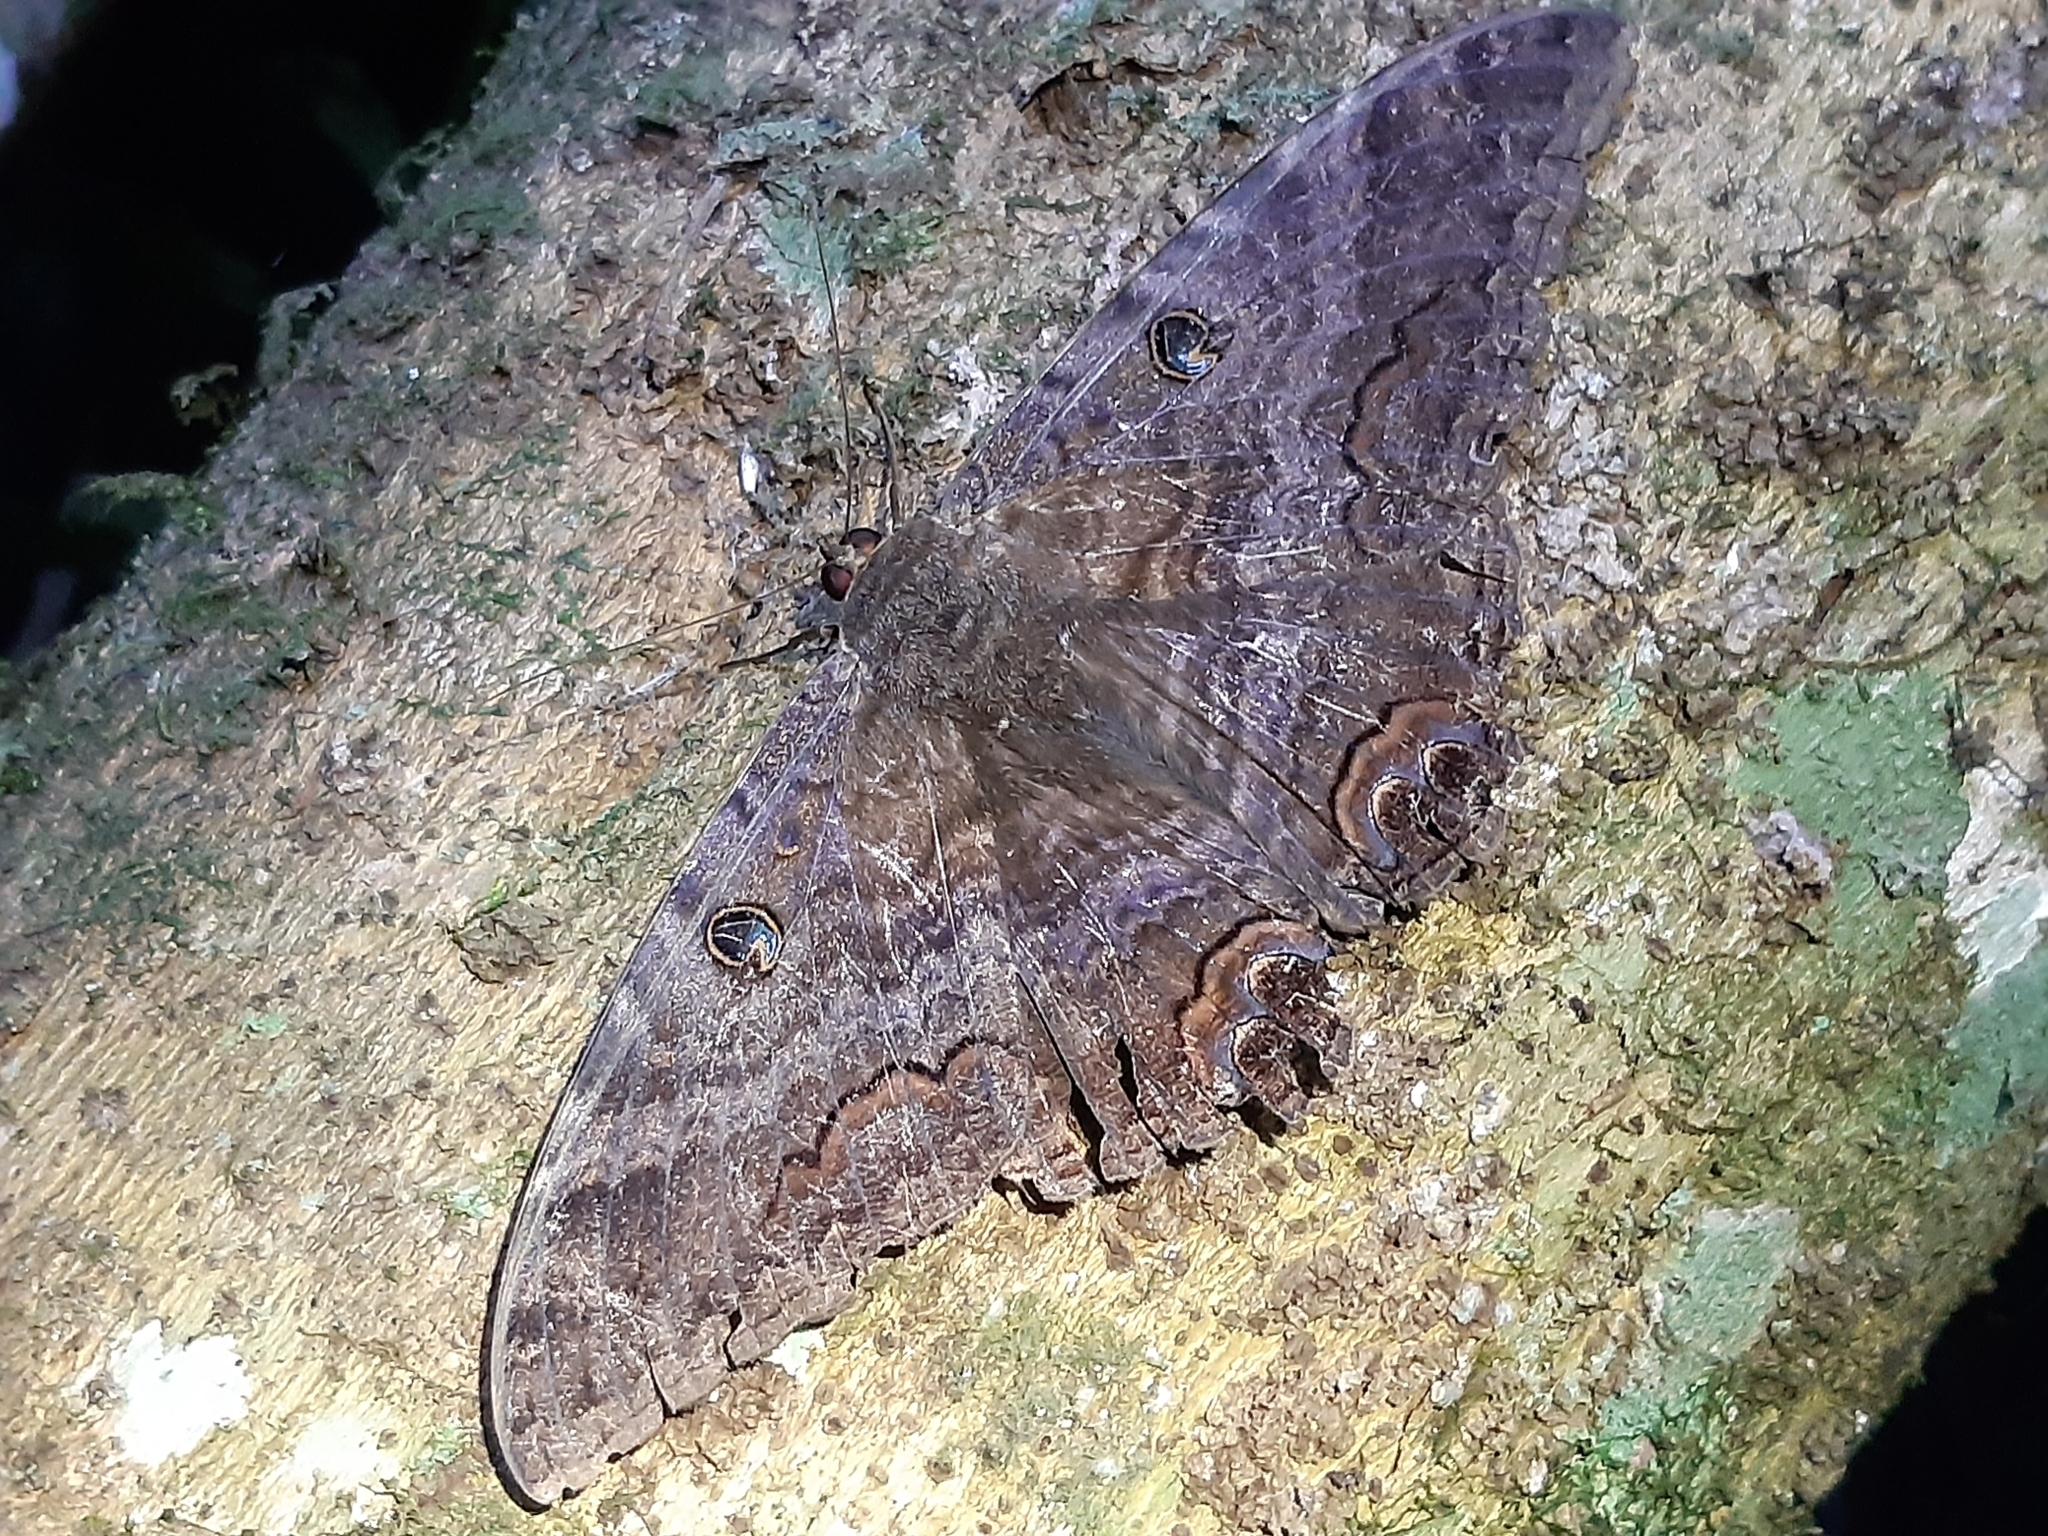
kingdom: Animalia
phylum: Arthropoda
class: Insecta
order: Lepidoptera
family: Erebidae
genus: Ascalapha
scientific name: Ascalapha odorata
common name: Black witch
